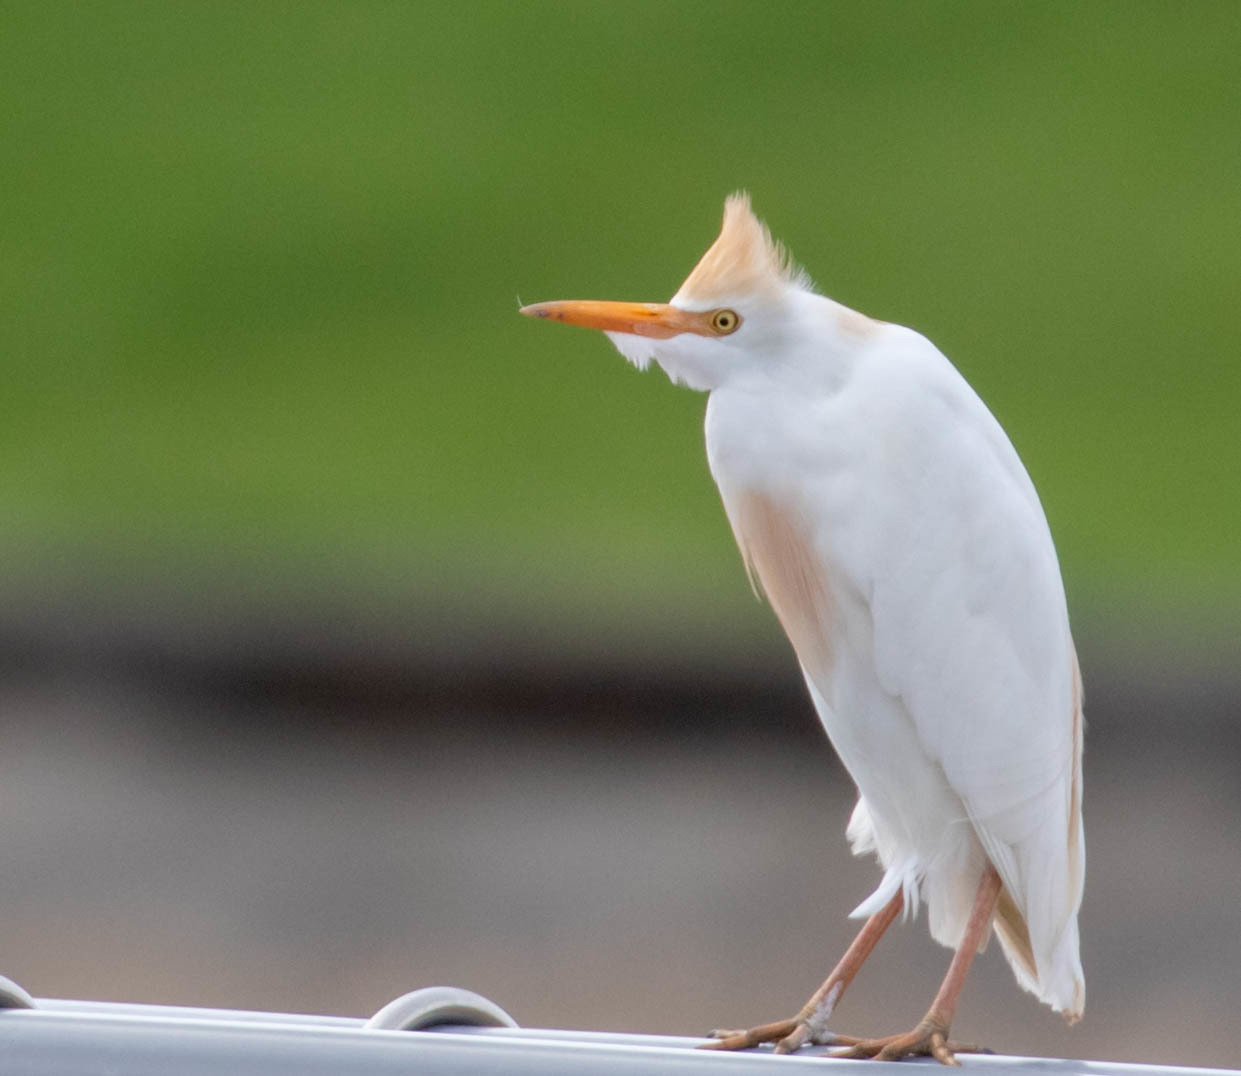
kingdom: Animalia
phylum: Chordata
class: Aves
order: Pelecaniformes
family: Ardeidae
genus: Bubulcus
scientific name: Bubulcus ibis
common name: Cattle egret
